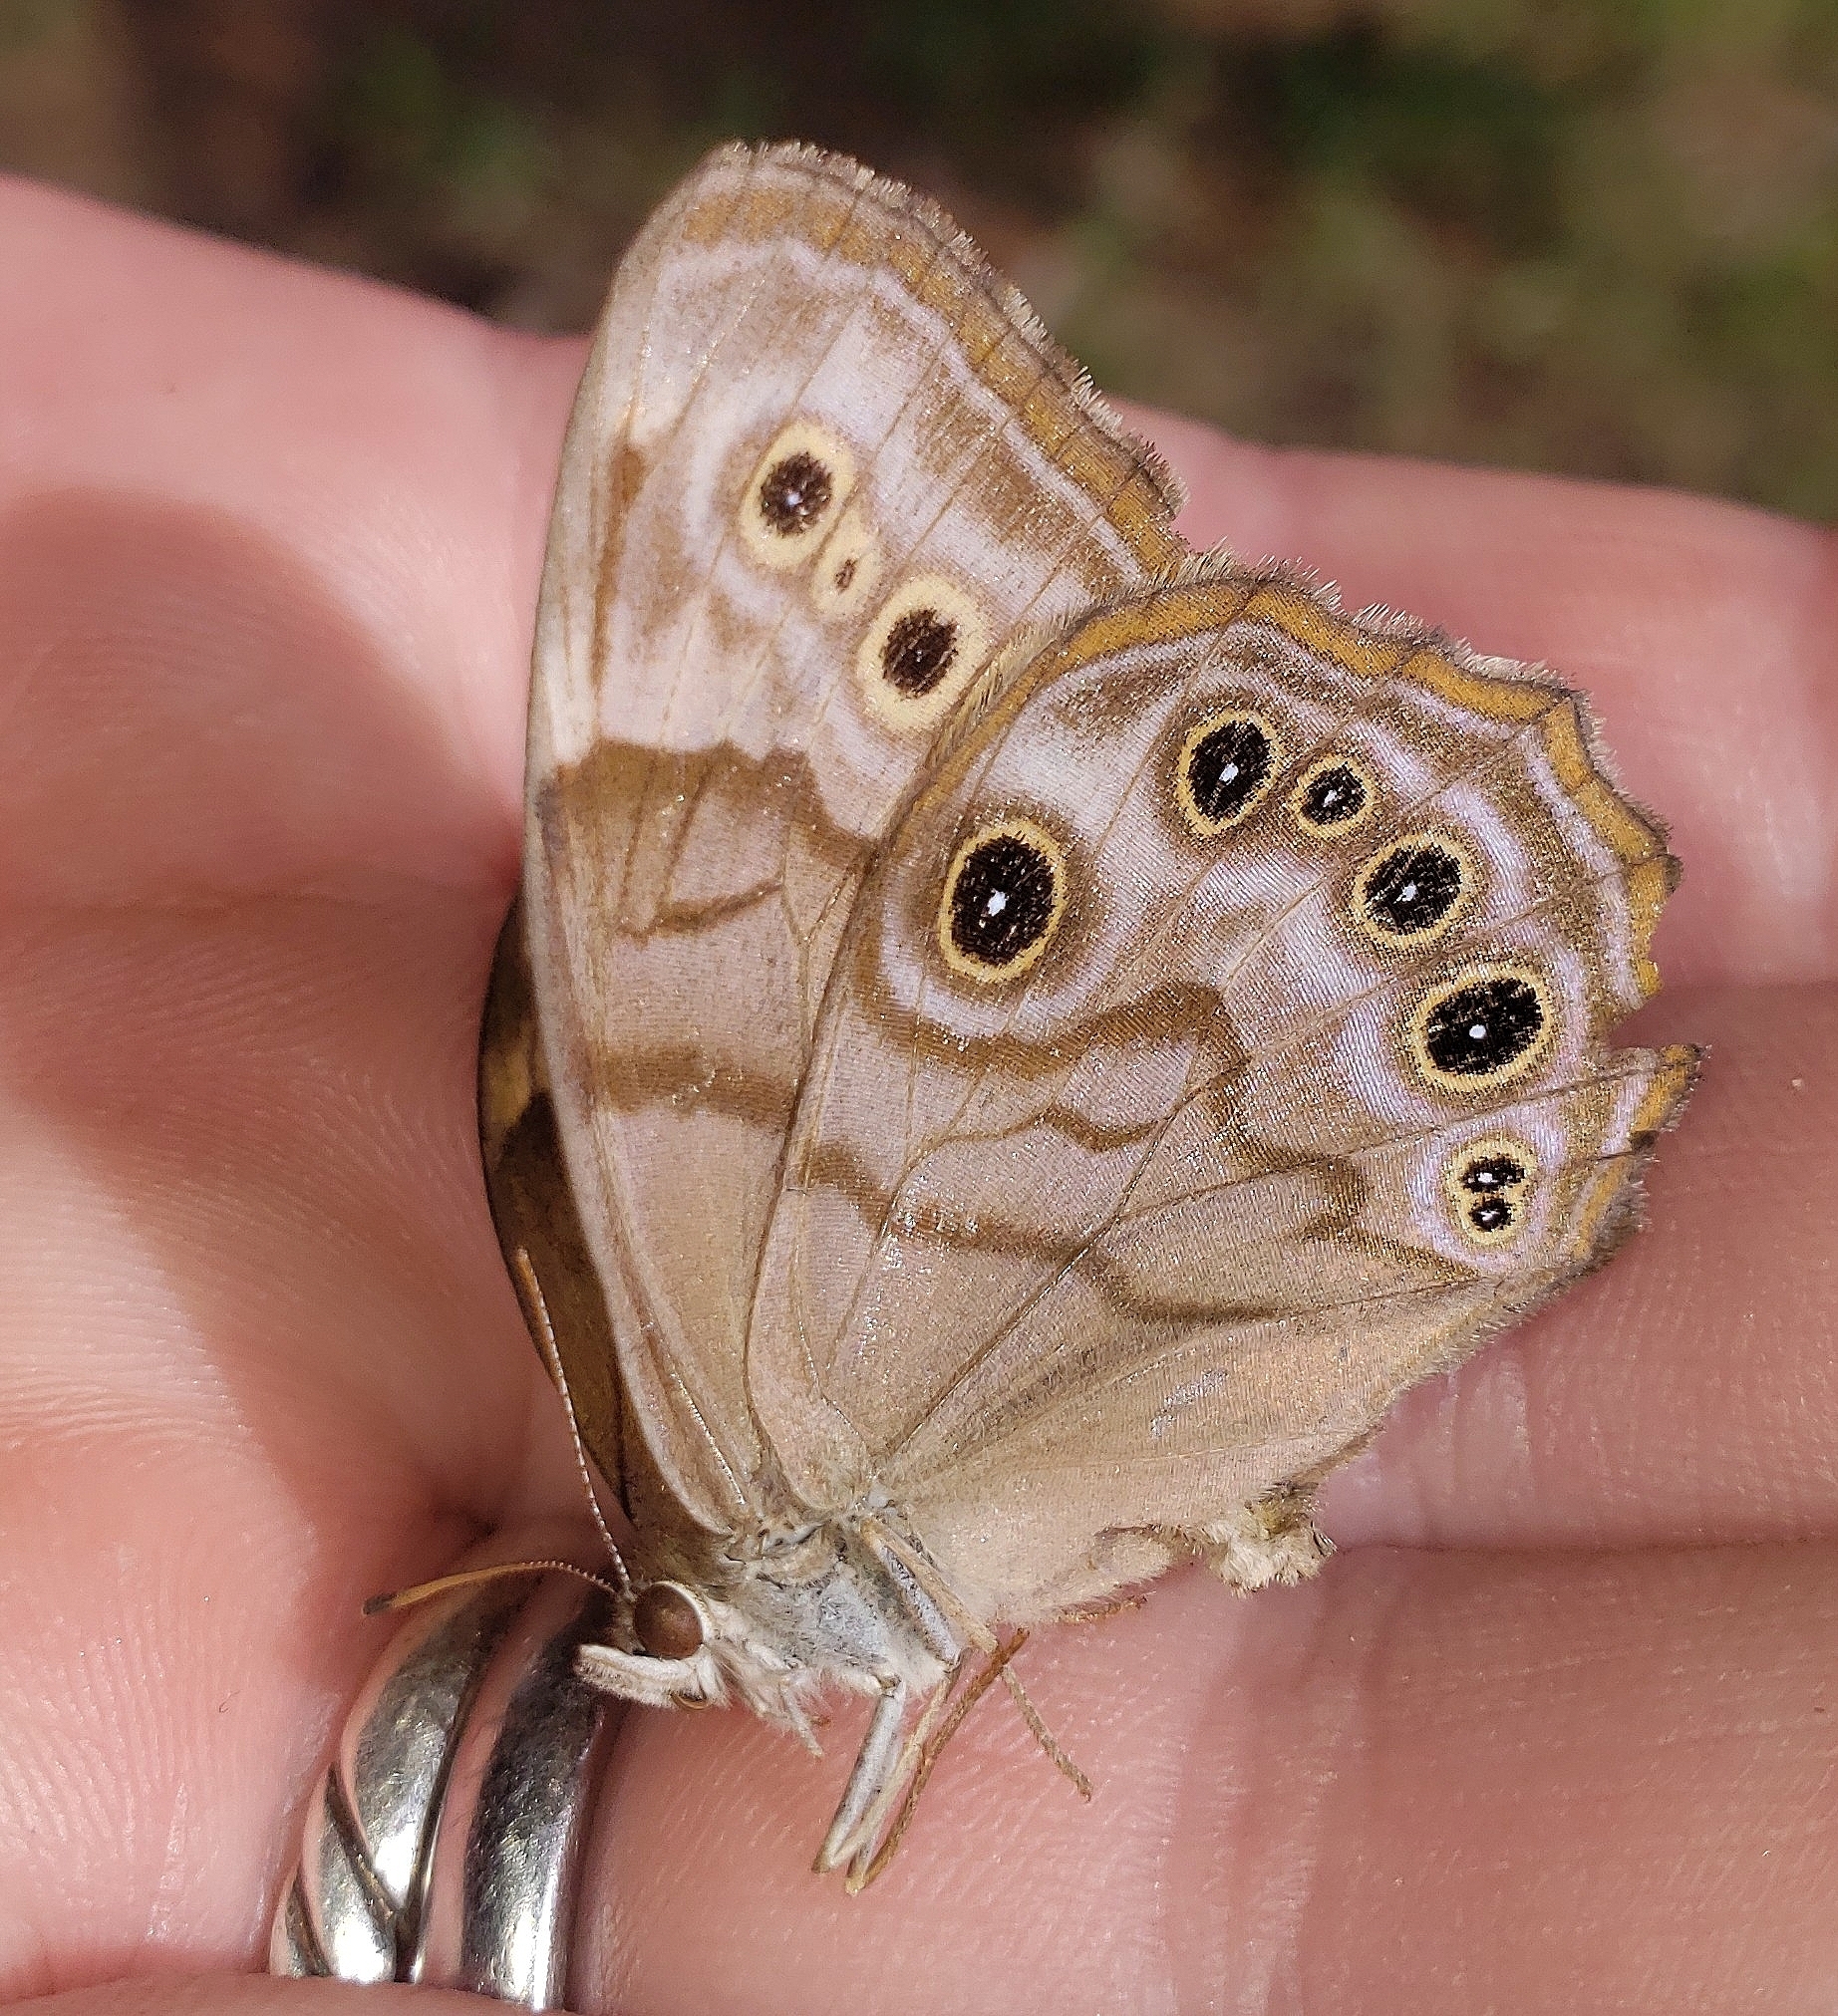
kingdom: Animalia
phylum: Arthropoda
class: Insecta
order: Lepidoptera
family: Nymphalidae
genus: Lethe
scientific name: Lethe anthedon
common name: Northern pearly-eye
